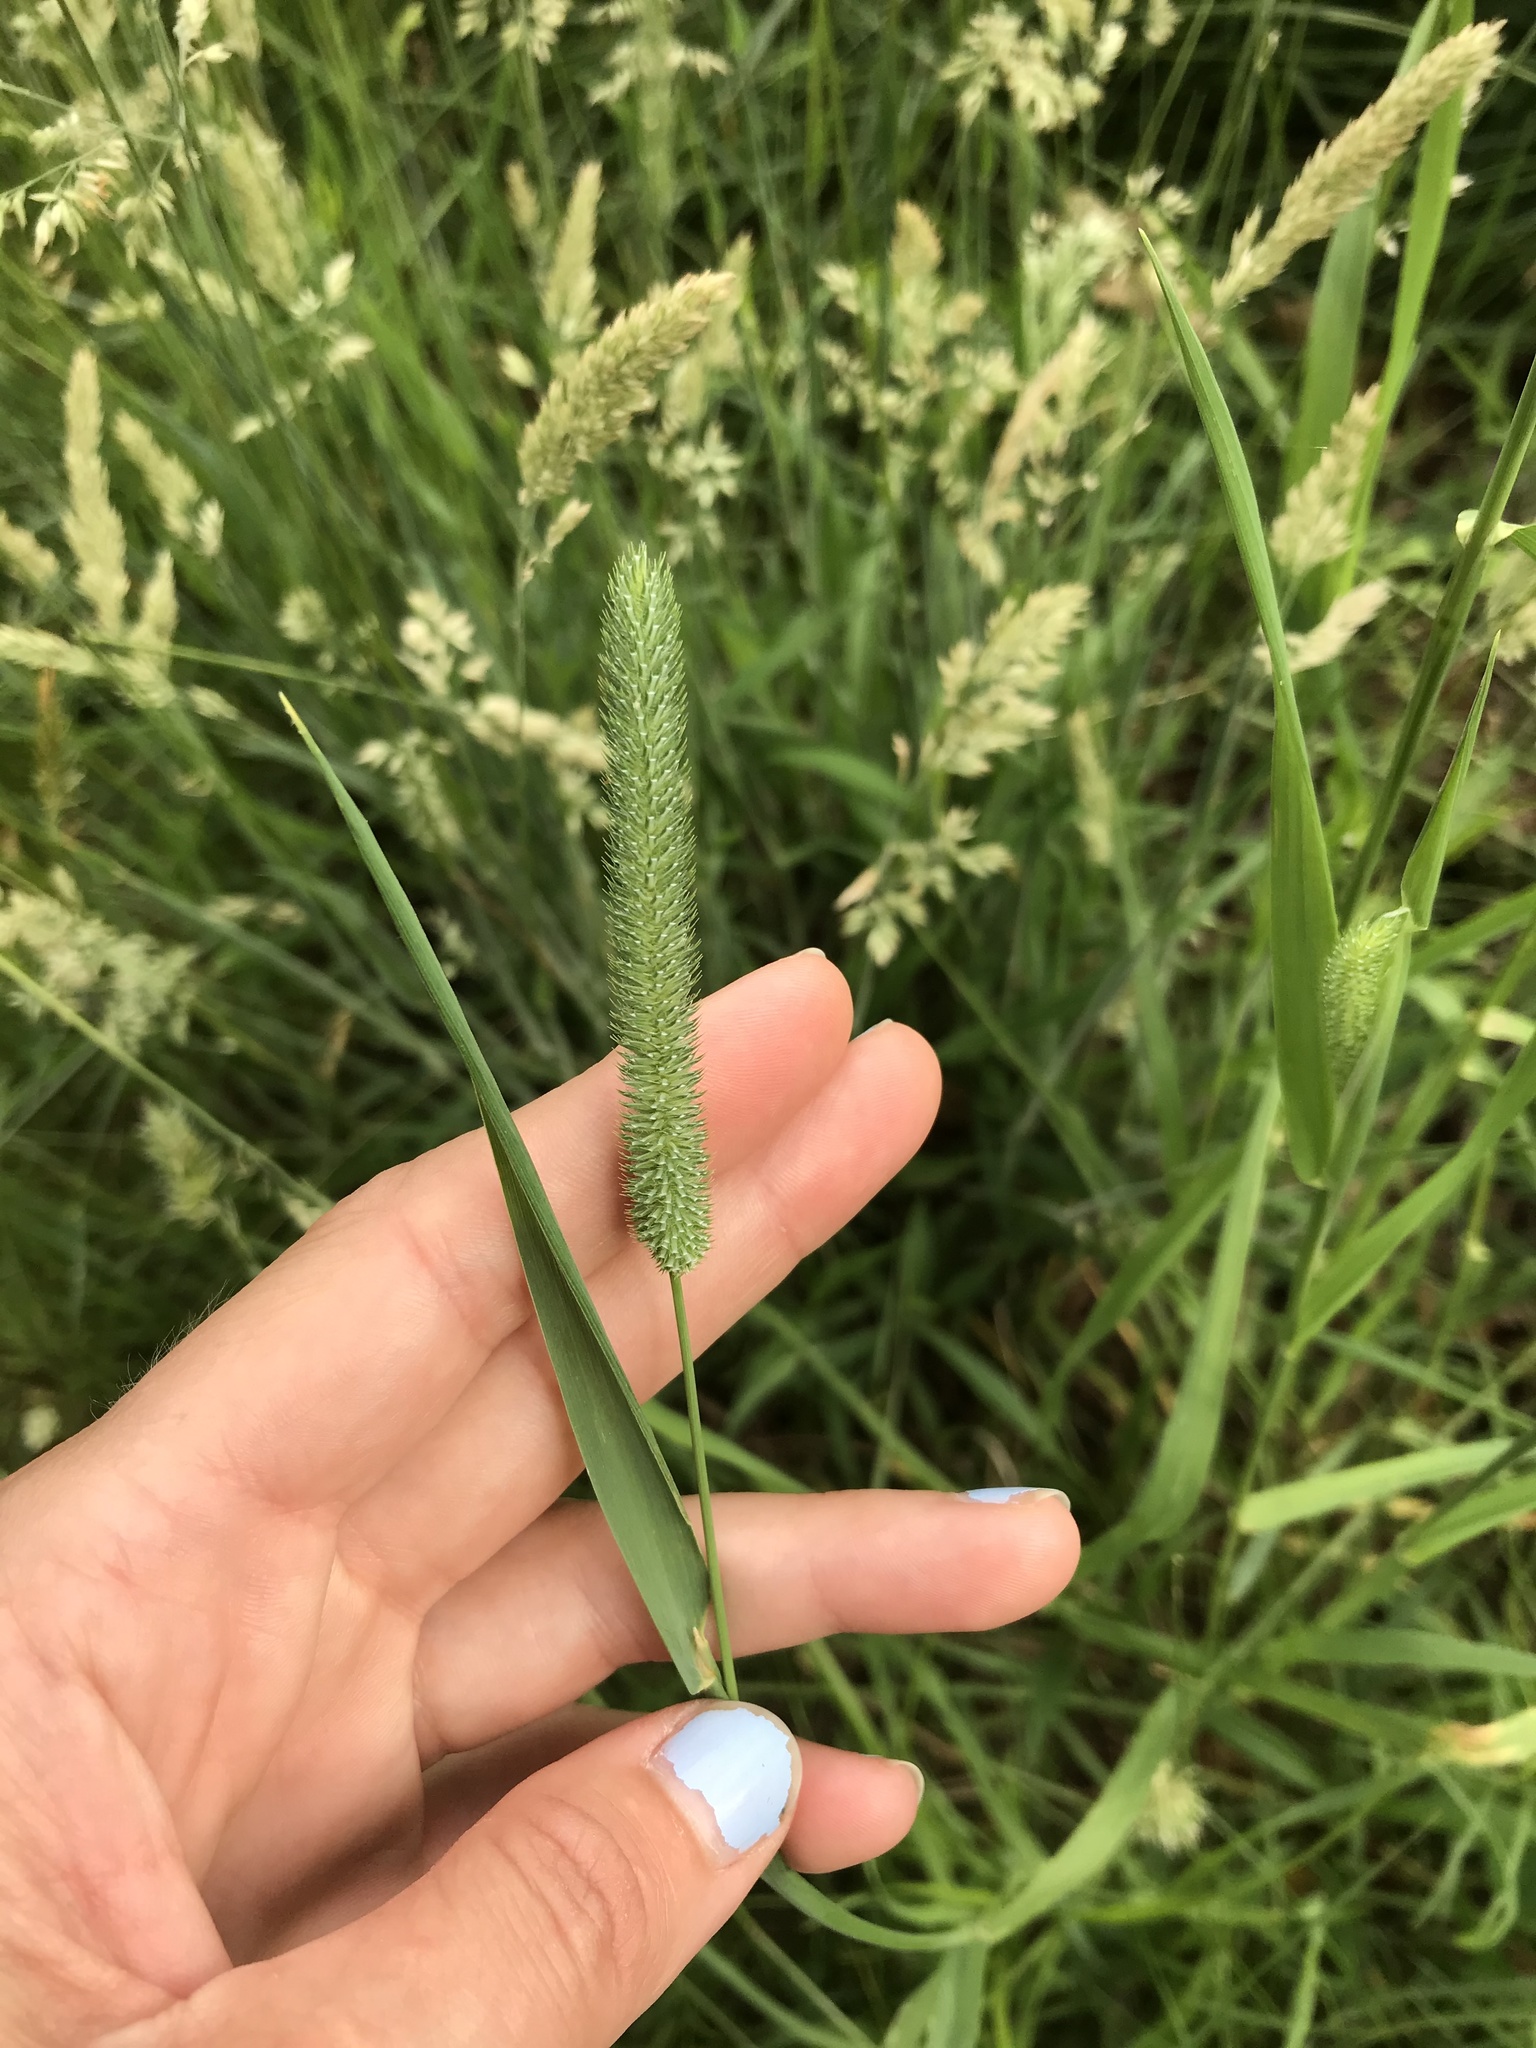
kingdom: Plantae
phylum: Tracheophyta
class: Liliopsida
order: Poales
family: Poaceae
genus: Phleum
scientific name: Phleum pratense
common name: Timothy grass
